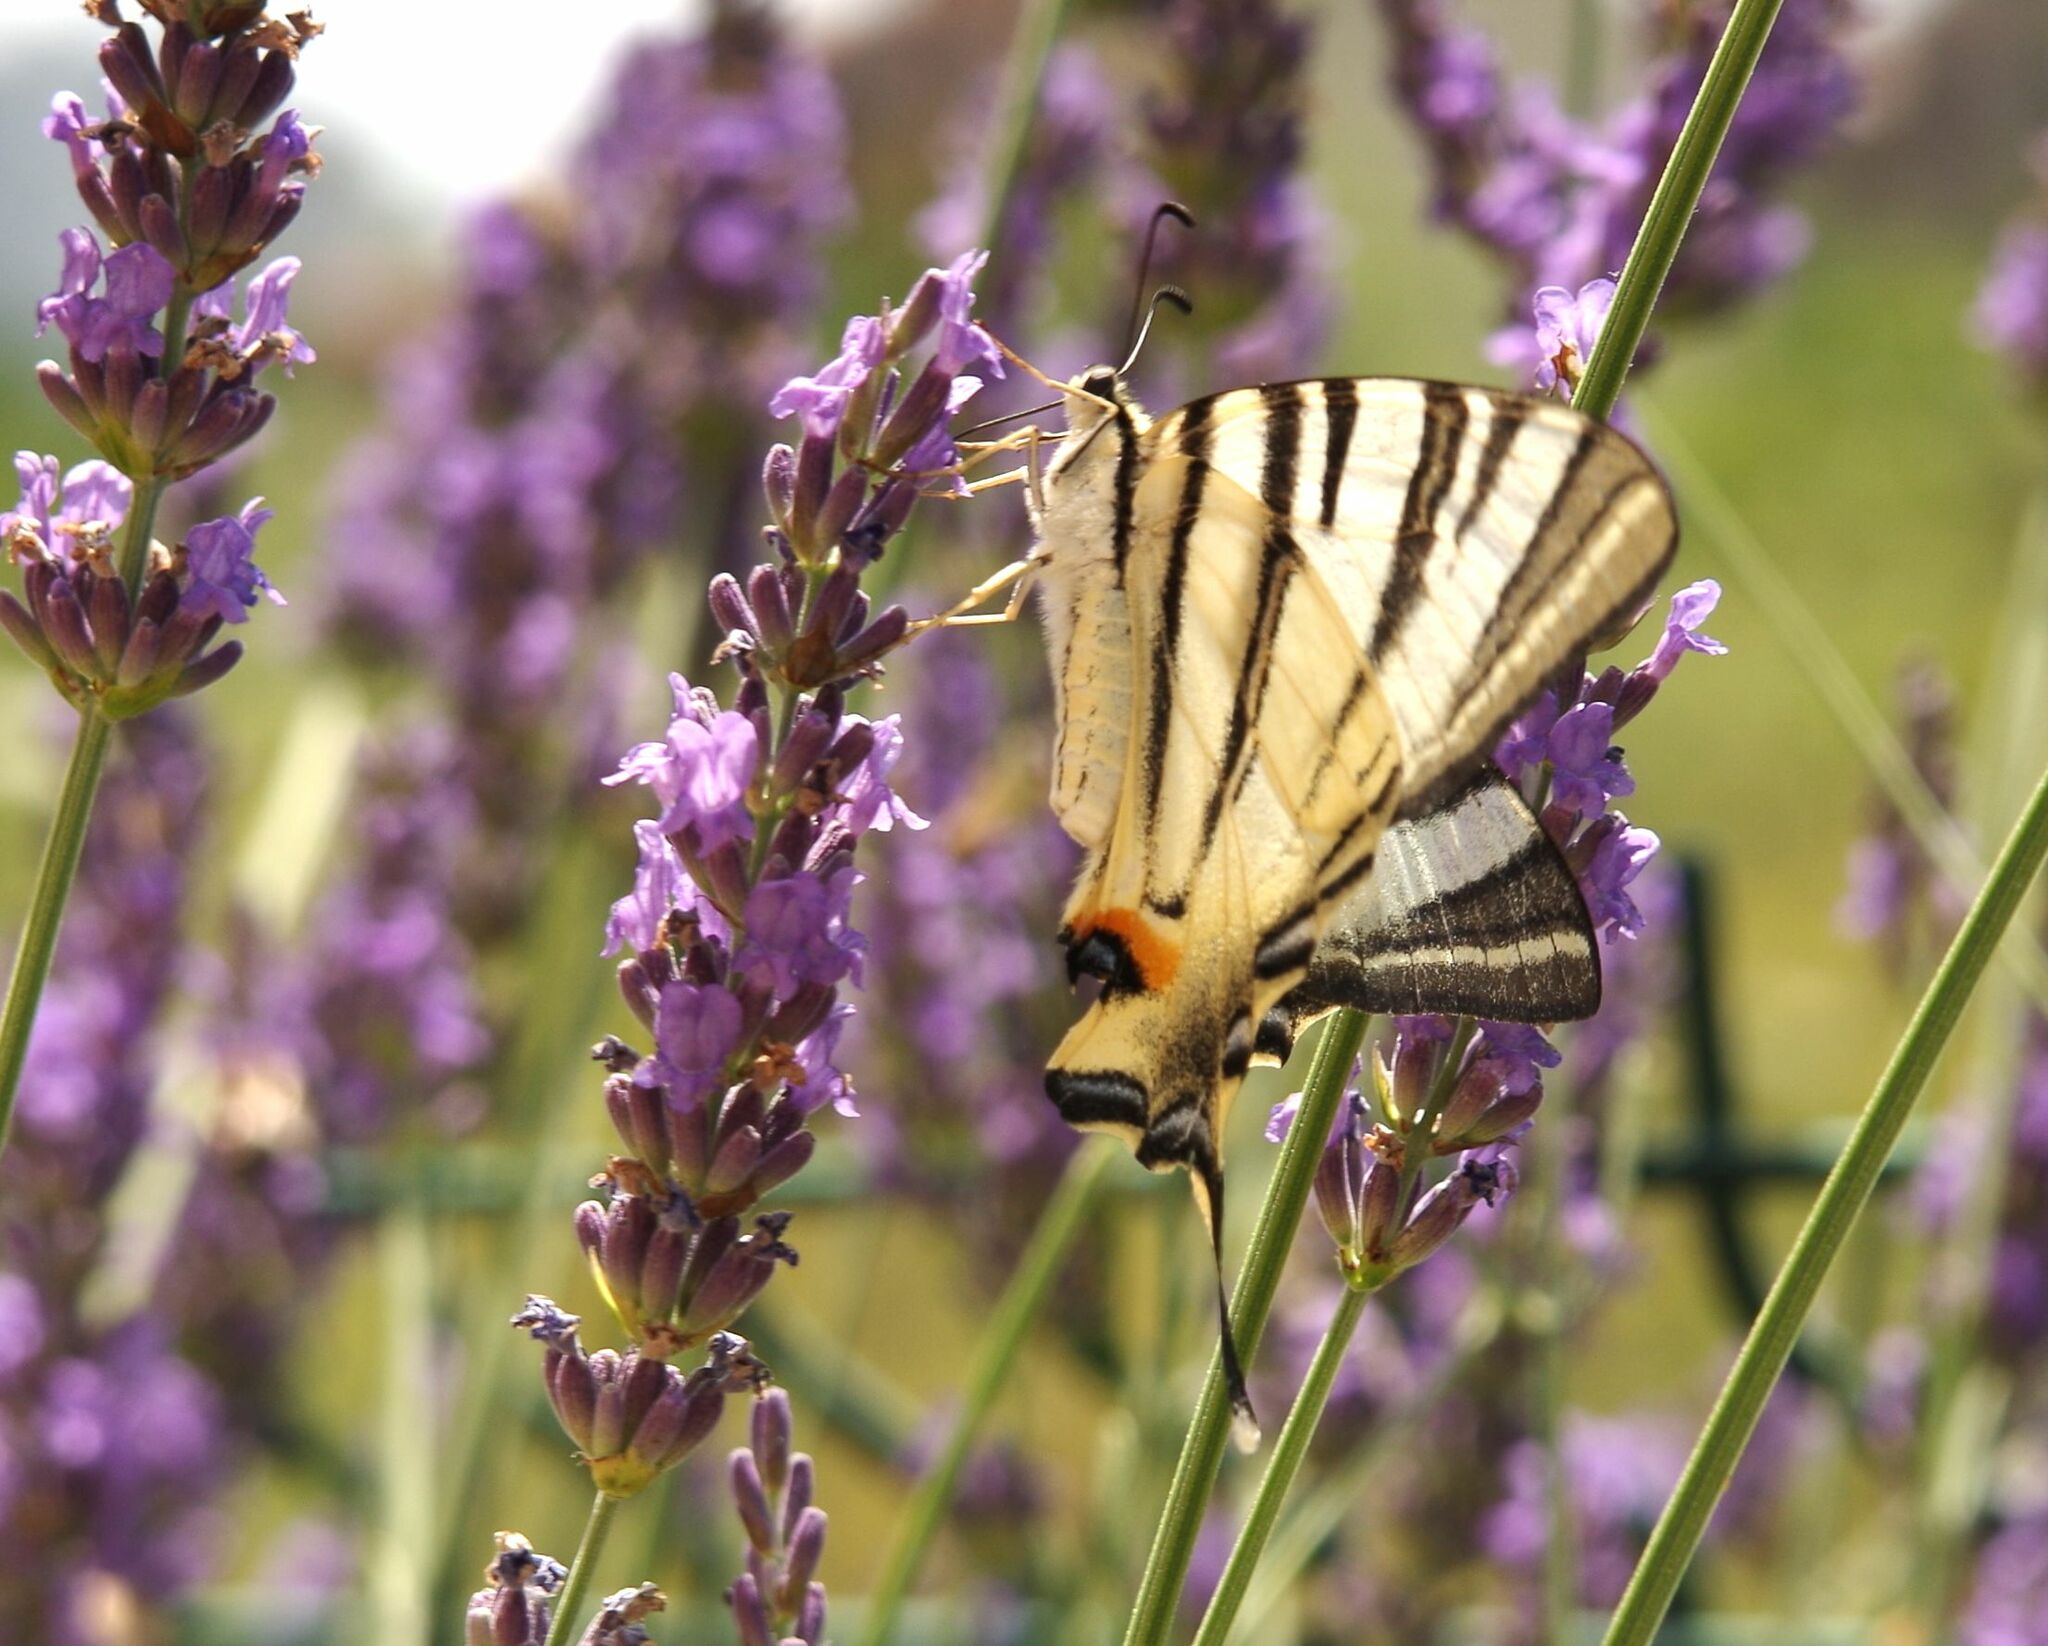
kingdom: Animalia
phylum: Arthropoda
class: Insecta
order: Lepidoptera
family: Papilionidae
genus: Iphiclides
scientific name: Iphiclides podalirius
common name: Scarce swallowtail
